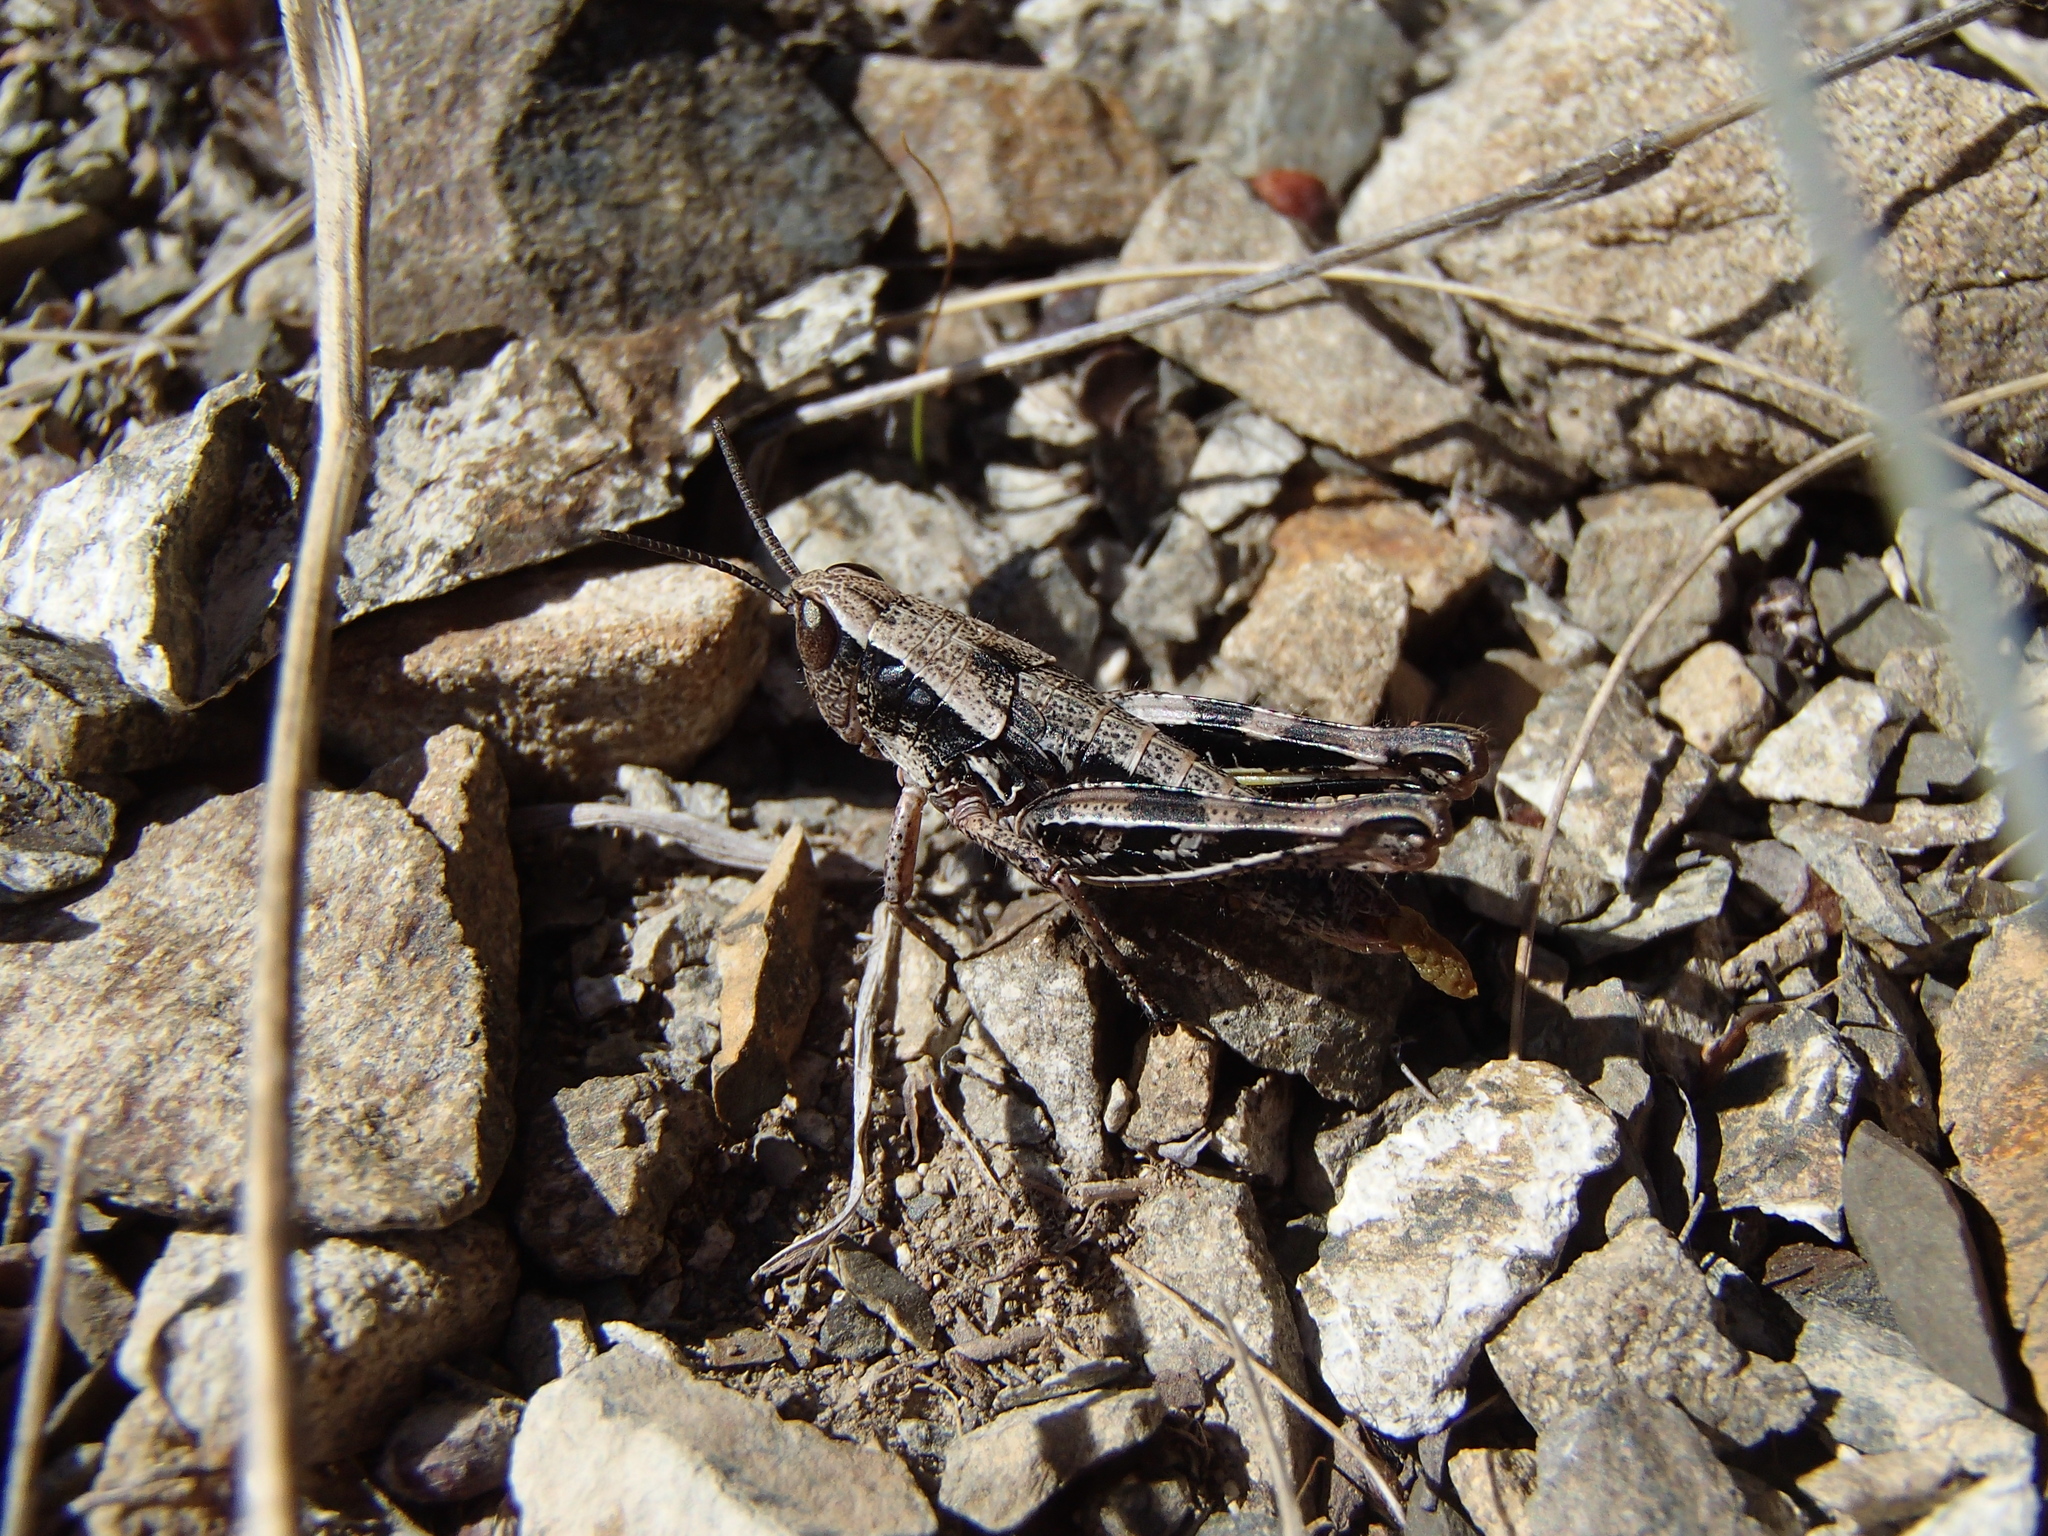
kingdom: Animalia
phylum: Arthropoda
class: Insecta
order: Orthoptera
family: Acrididae
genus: Sigaus
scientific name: Sigaus australis
